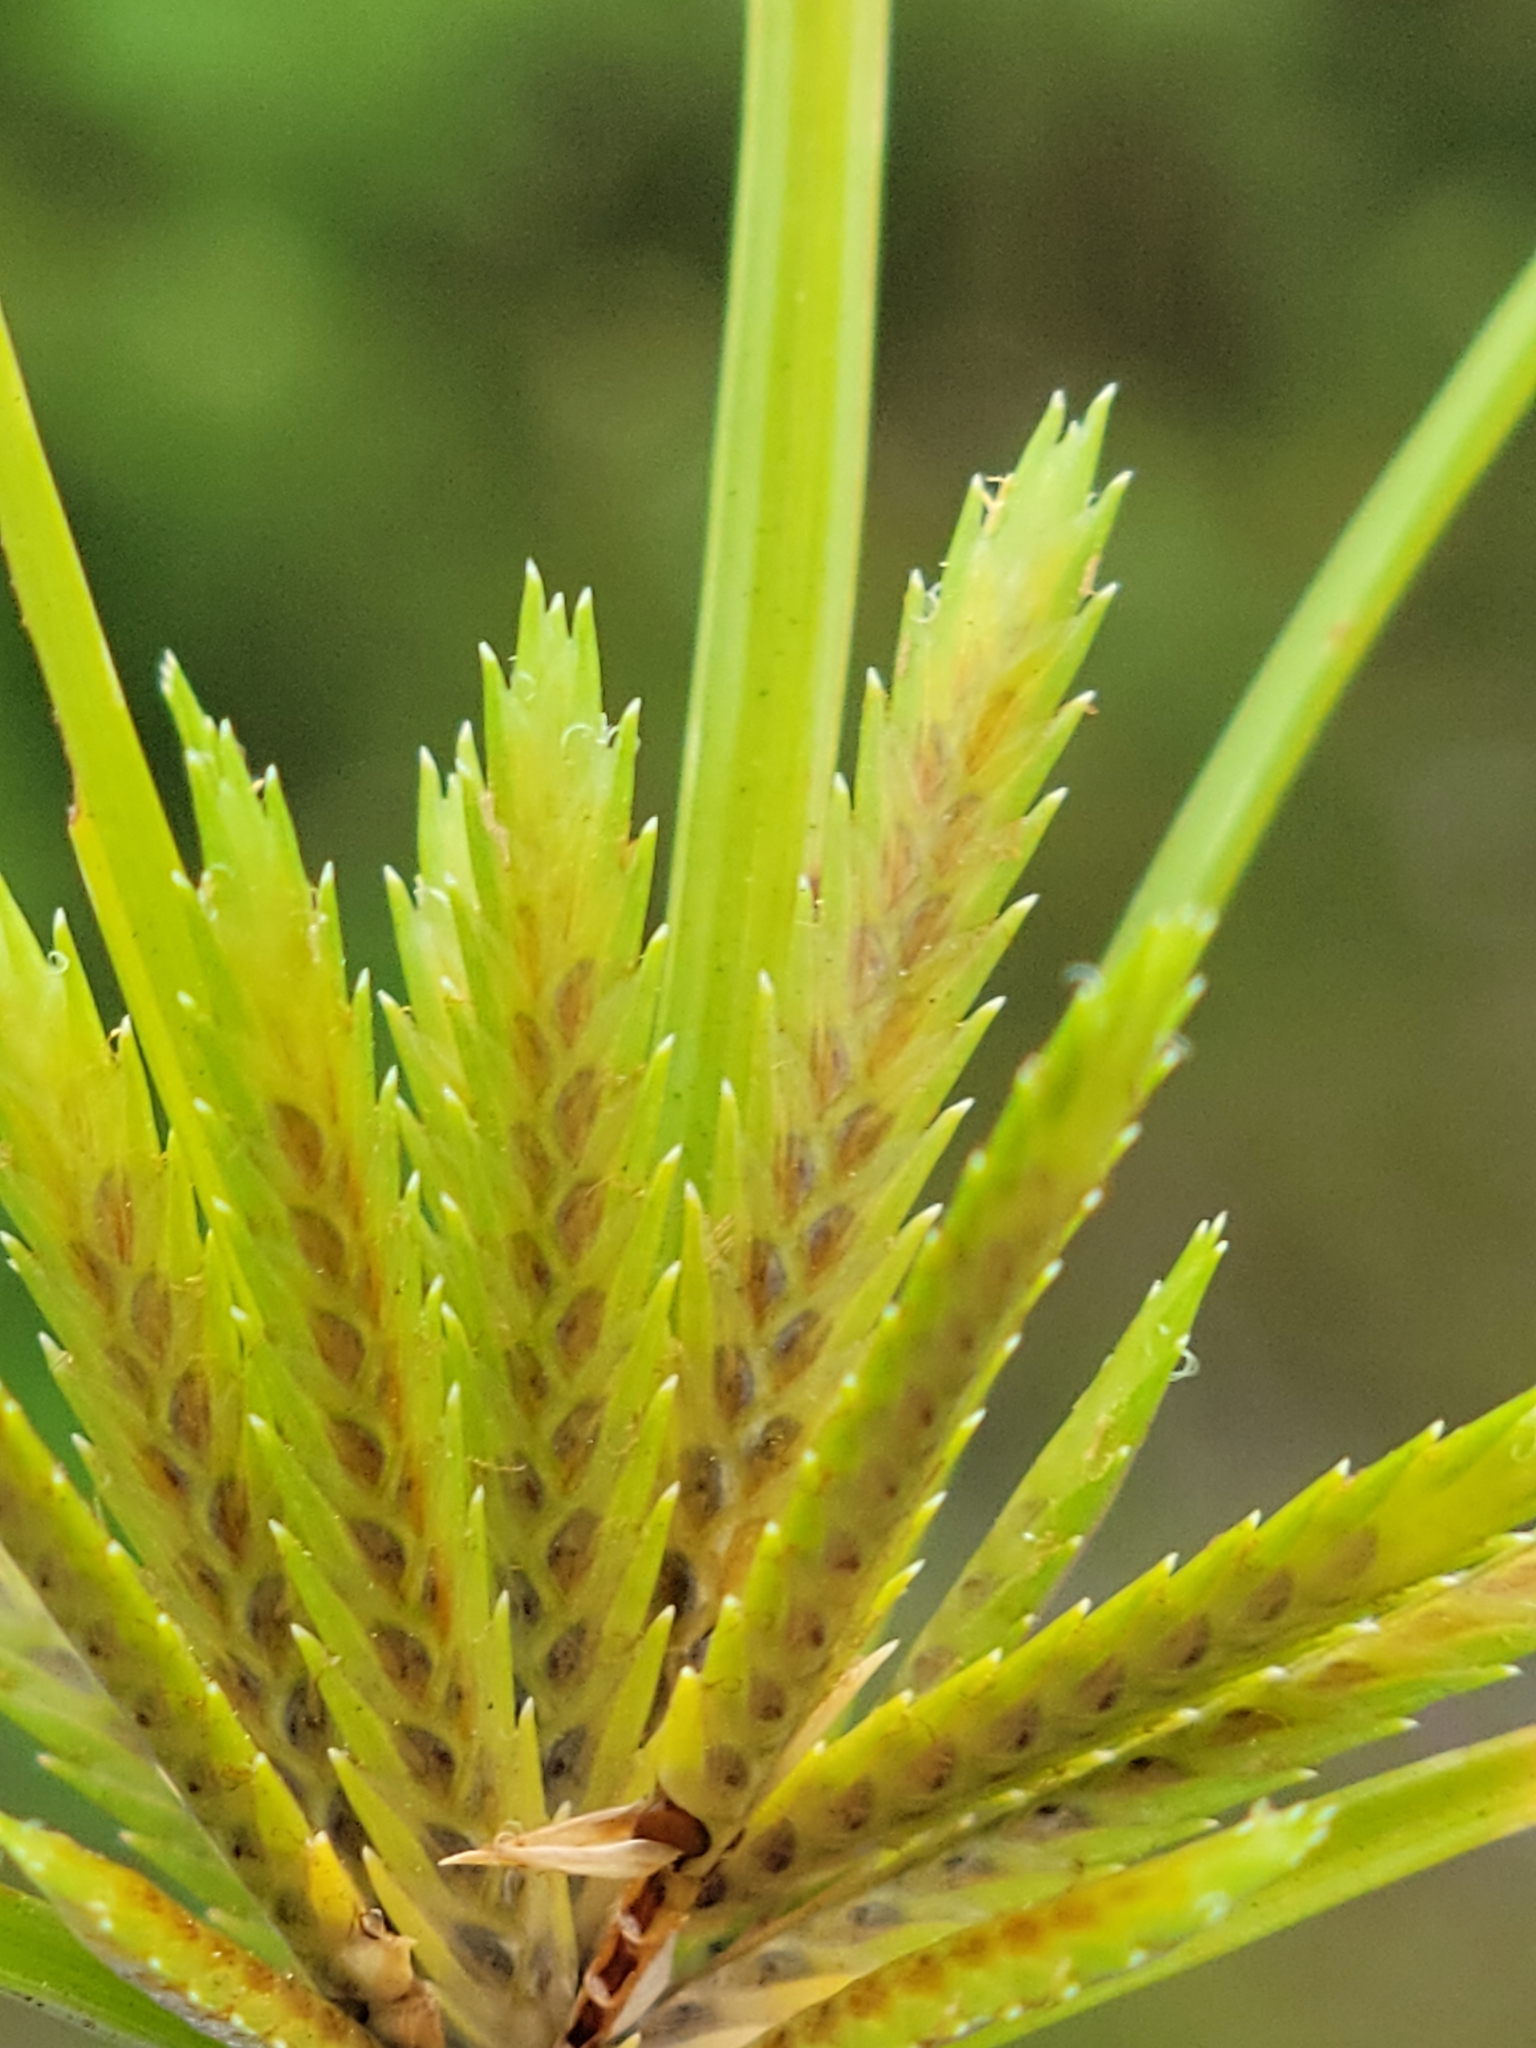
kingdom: Plantae
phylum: Tracheophyta
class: Liliopsida
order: Poales
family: Cyperaceae
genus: Cyperus
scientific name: Cyperus compressus
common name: Poorland flatsedge
